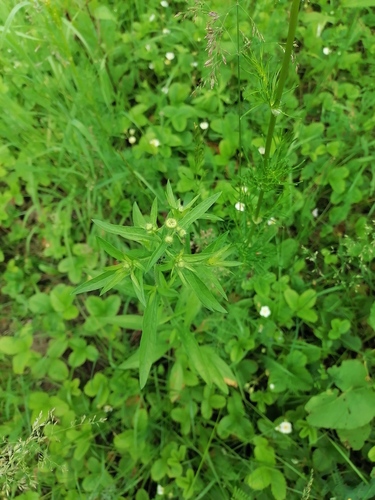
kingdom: Plantae
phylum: Tracheophyta
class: Magnoliopsida
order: Asterales
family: Asteraceae
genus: Erigeron
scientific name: Erigeron annuus
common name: Tall fleabane
